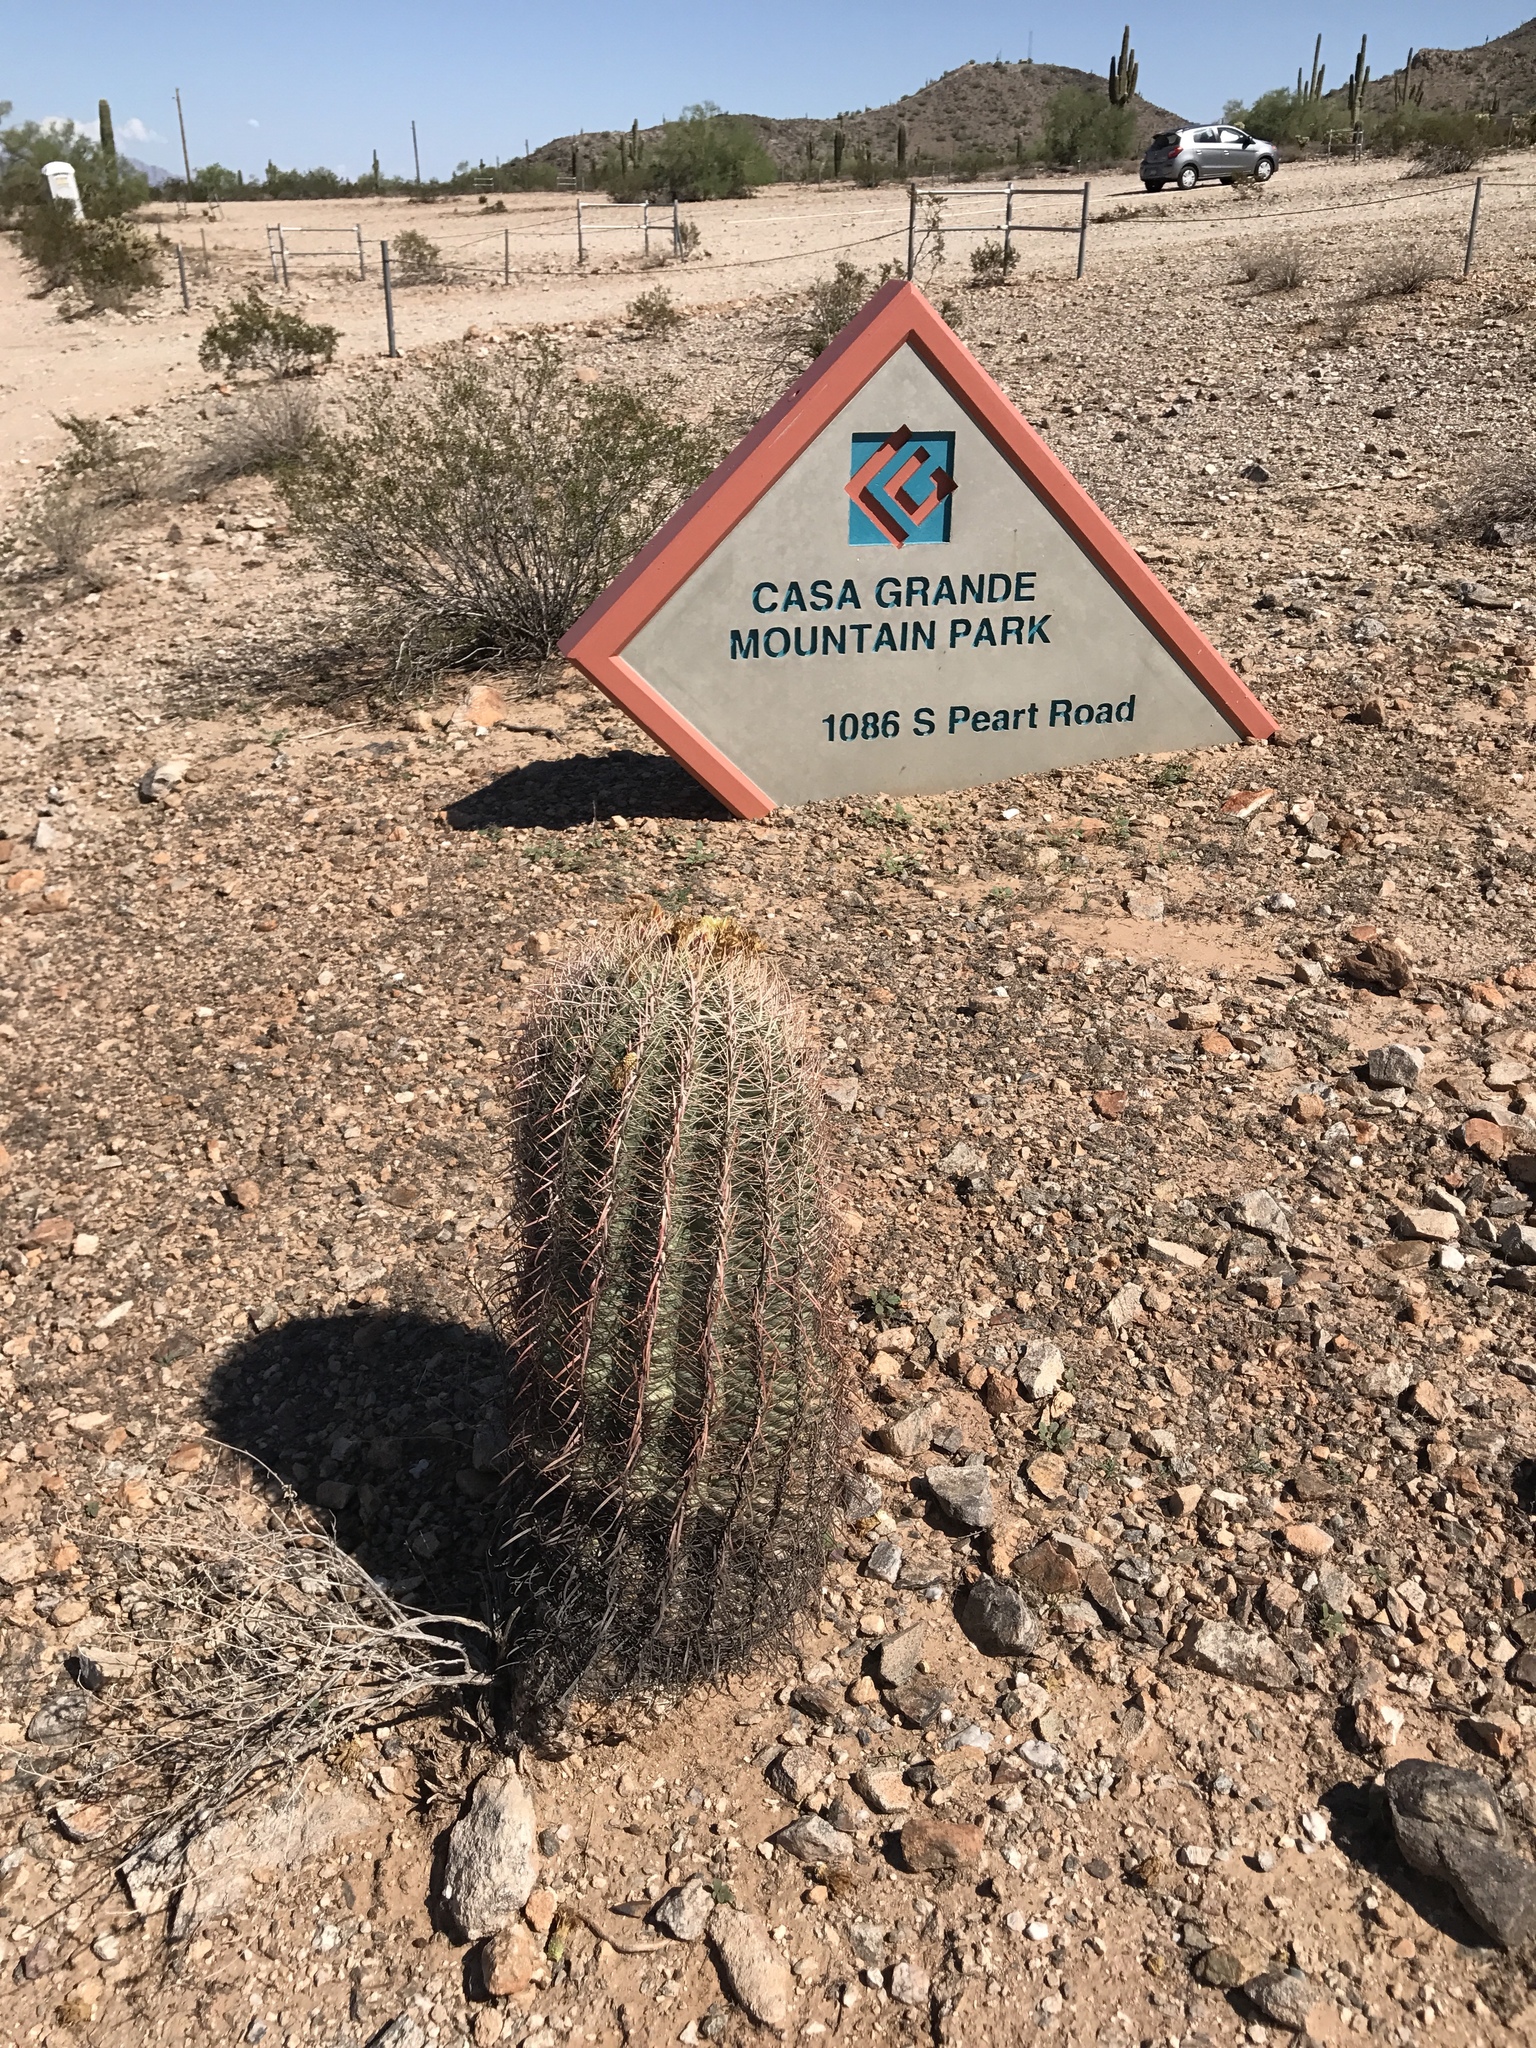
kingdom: Plantae
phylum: Tracheophyta
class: Magnoliopsida
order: Caryophyllales
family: Cactaceae
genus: Ferocactus
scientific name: Ferocactus wislizeni
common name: Candy barrel cactus
